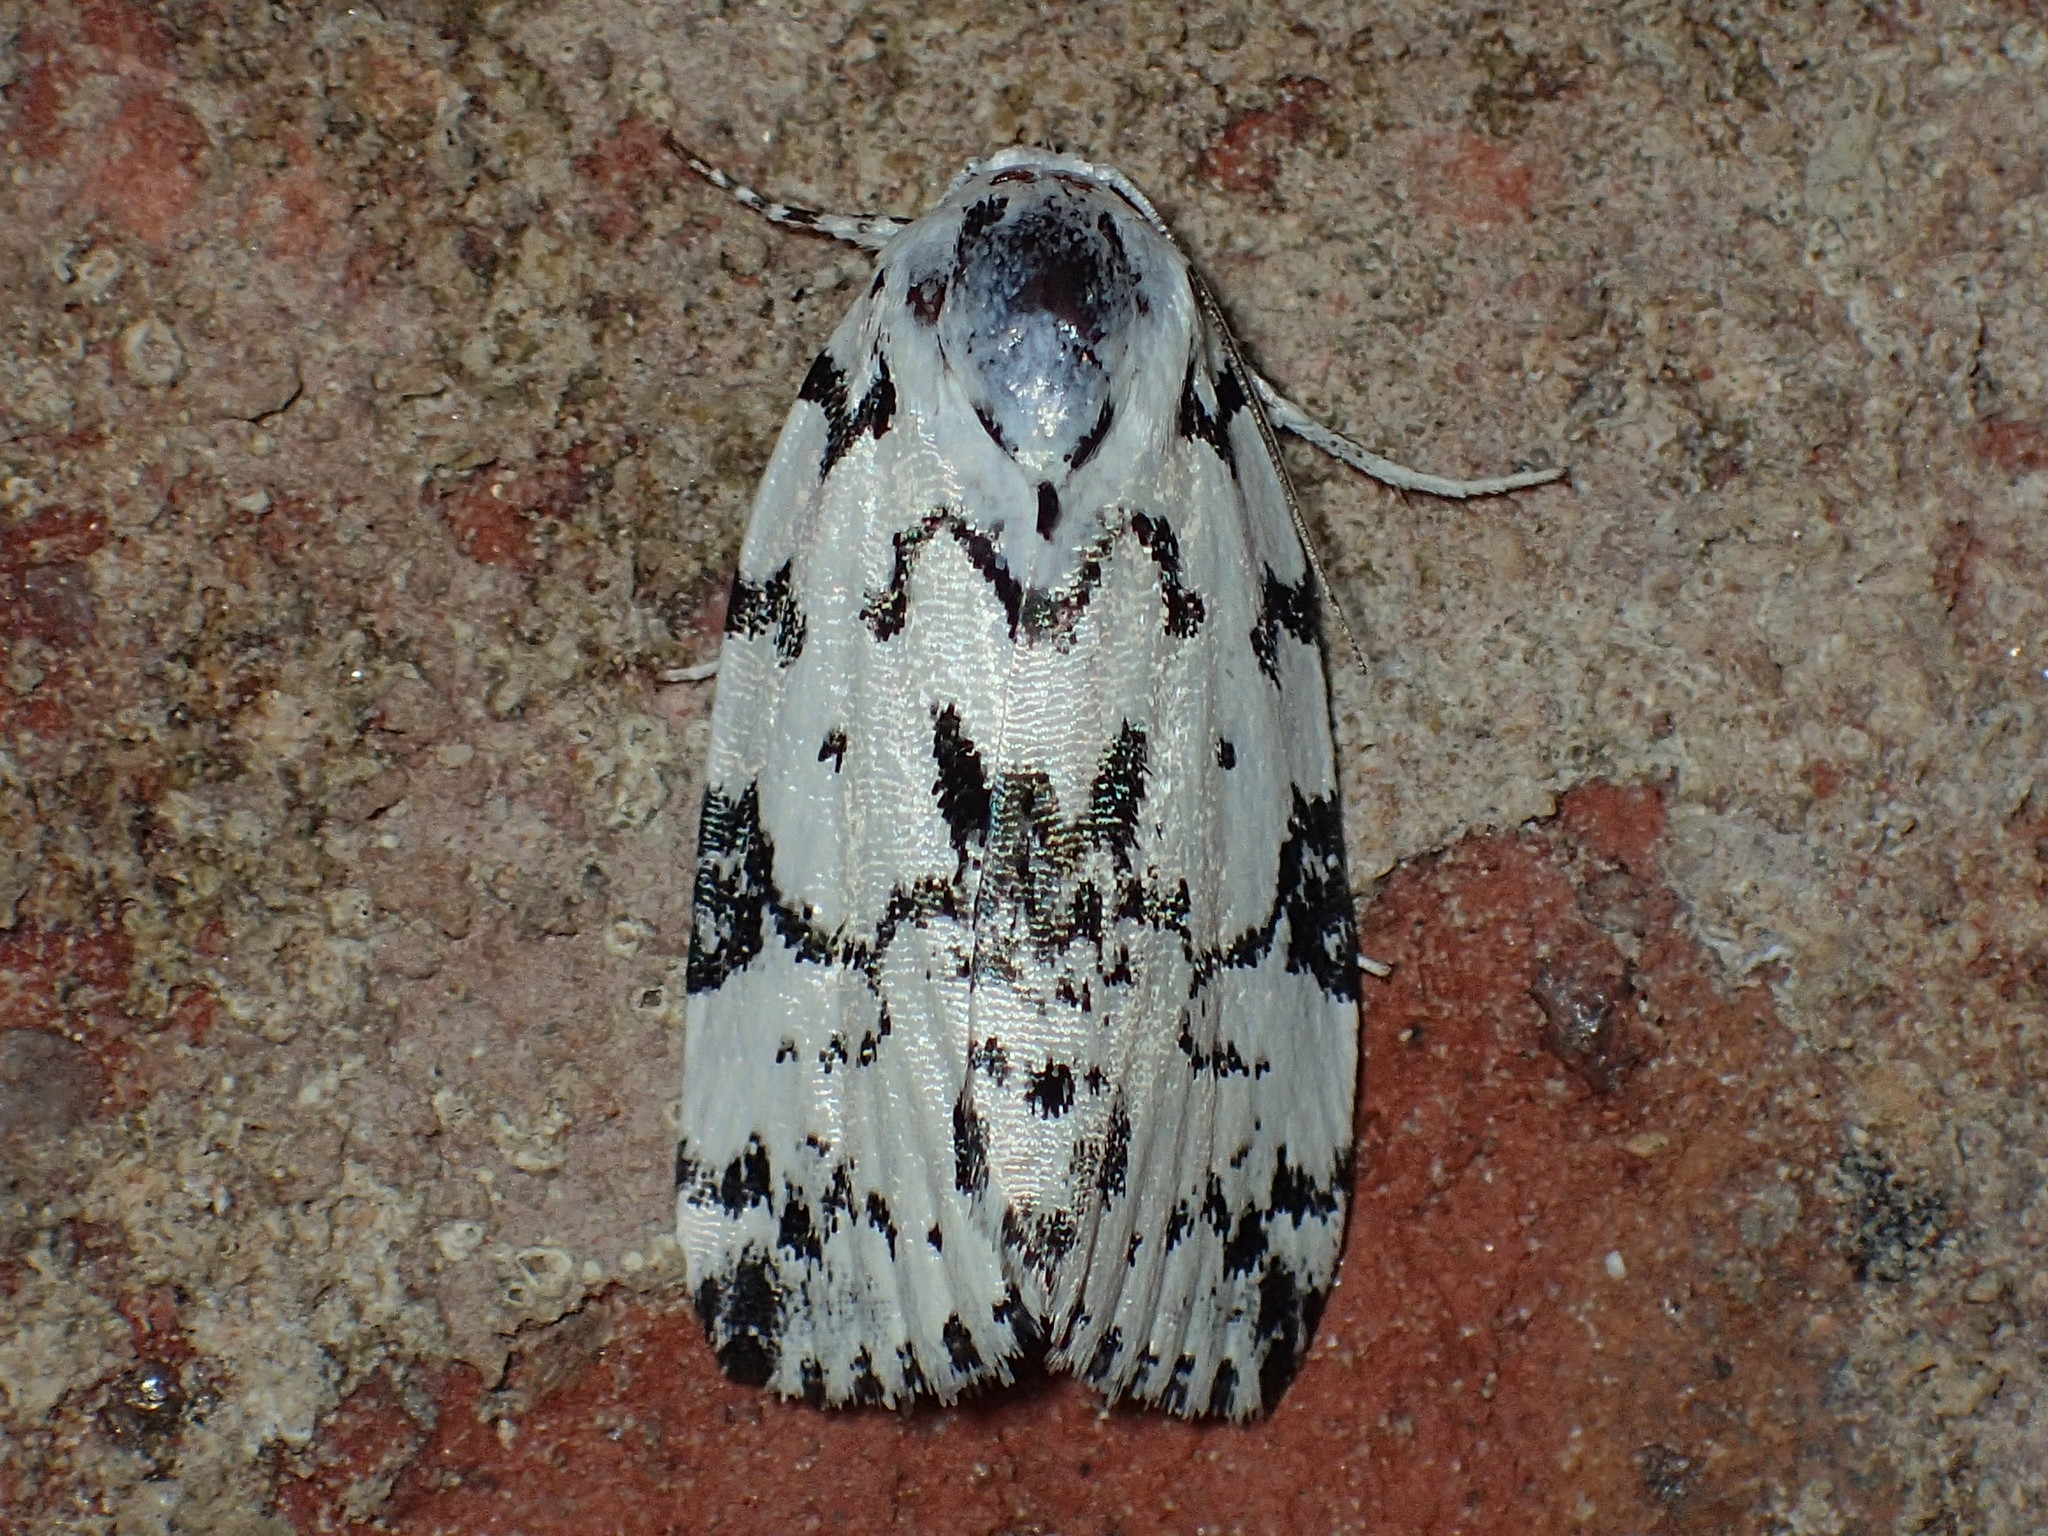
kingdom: Animalia
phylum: Arthropoda
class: Insecta
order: Lepidoptera
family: Noctuidae
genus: Polygrammate
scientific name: Polygrammate hebraeicum
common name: Hebrew moth
